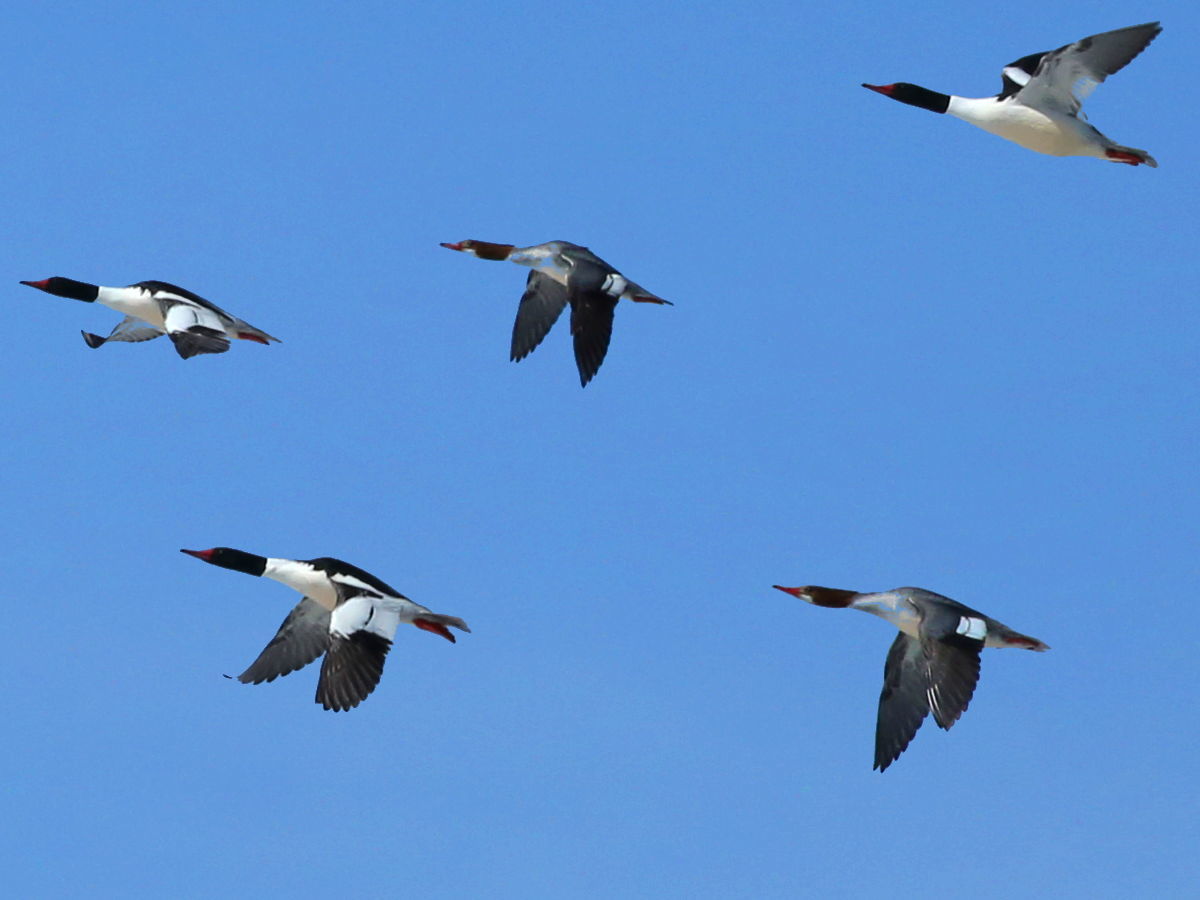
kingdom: Animalia
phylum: Chordata
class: Aves
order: Anseriformes
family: Anatidae
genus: Mergus
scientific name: Mergus merganser
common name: Common merganser
